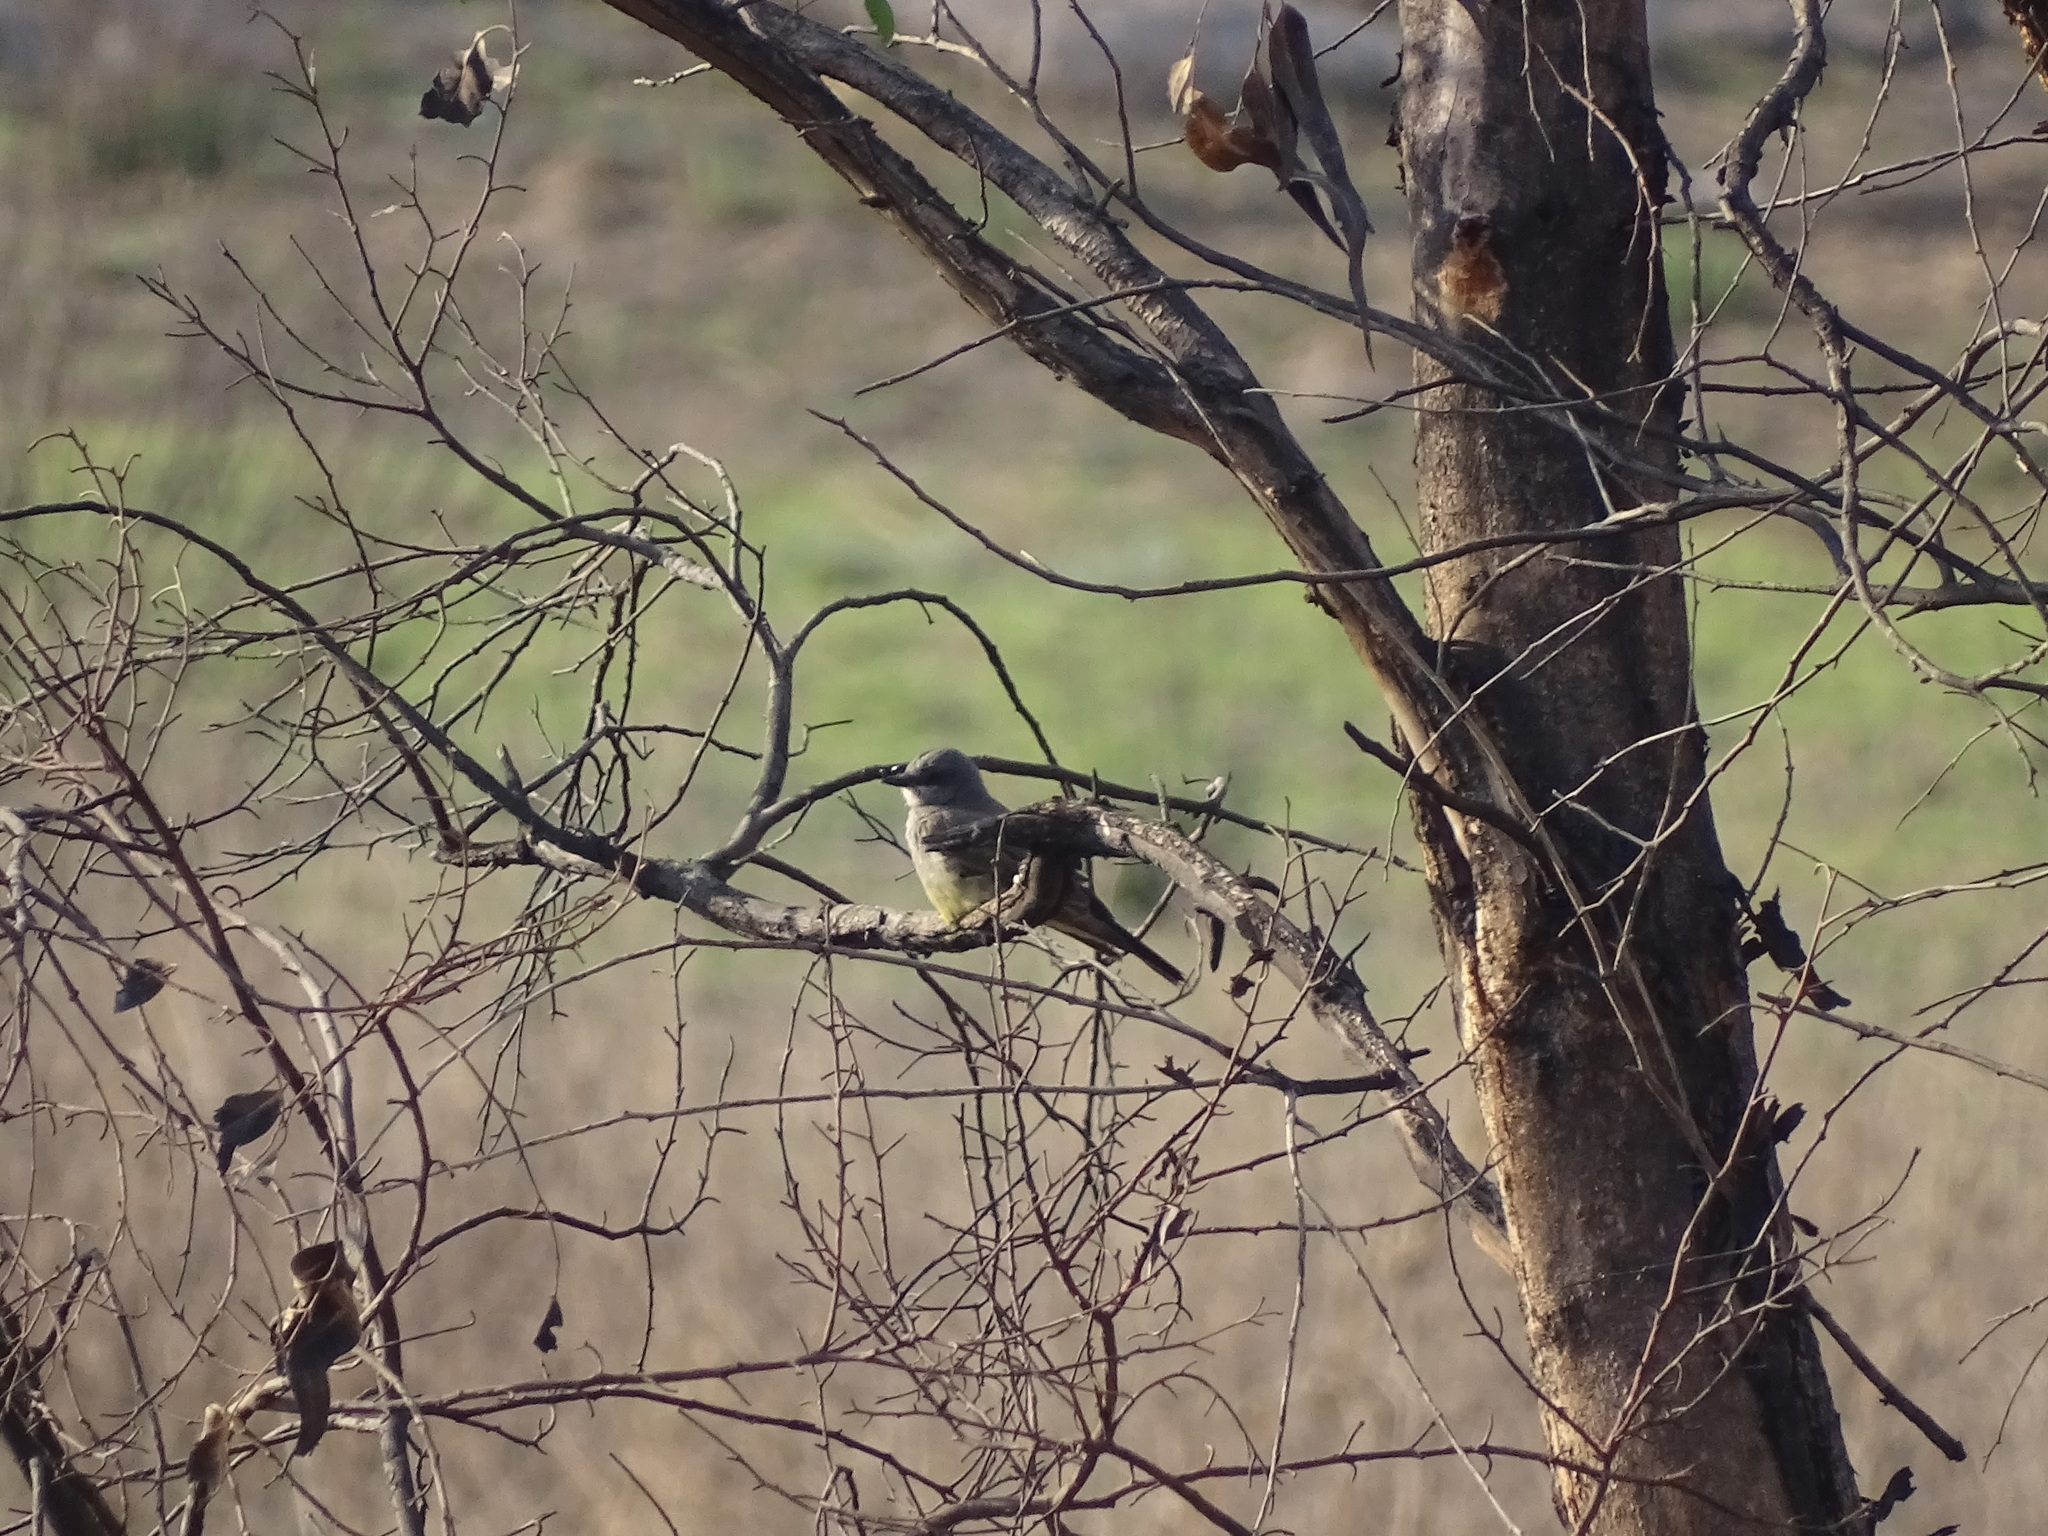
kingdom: Animalia
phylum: Chordata
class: Aves
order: Passeriformes
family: Tyrannidae
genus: Tyrannus
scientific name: Tyrannus vociferans
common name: Cassin's kingbird
